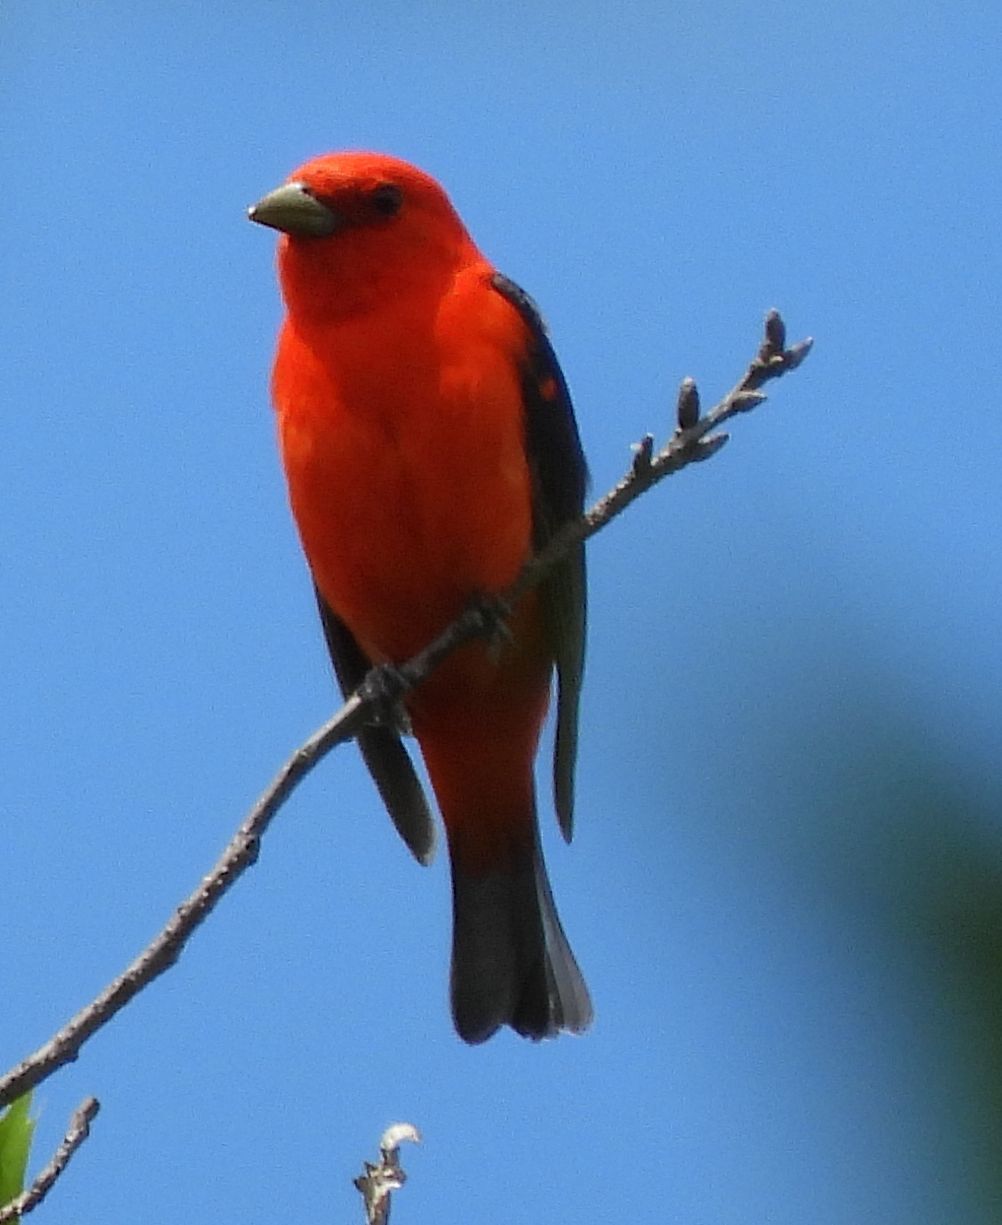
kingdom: Animalia
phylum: Chordata
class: Aves
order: Passeriformes
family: Cardinalidae
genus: Piranga
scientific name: Piranga olivacea
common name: Scarlet tanager
